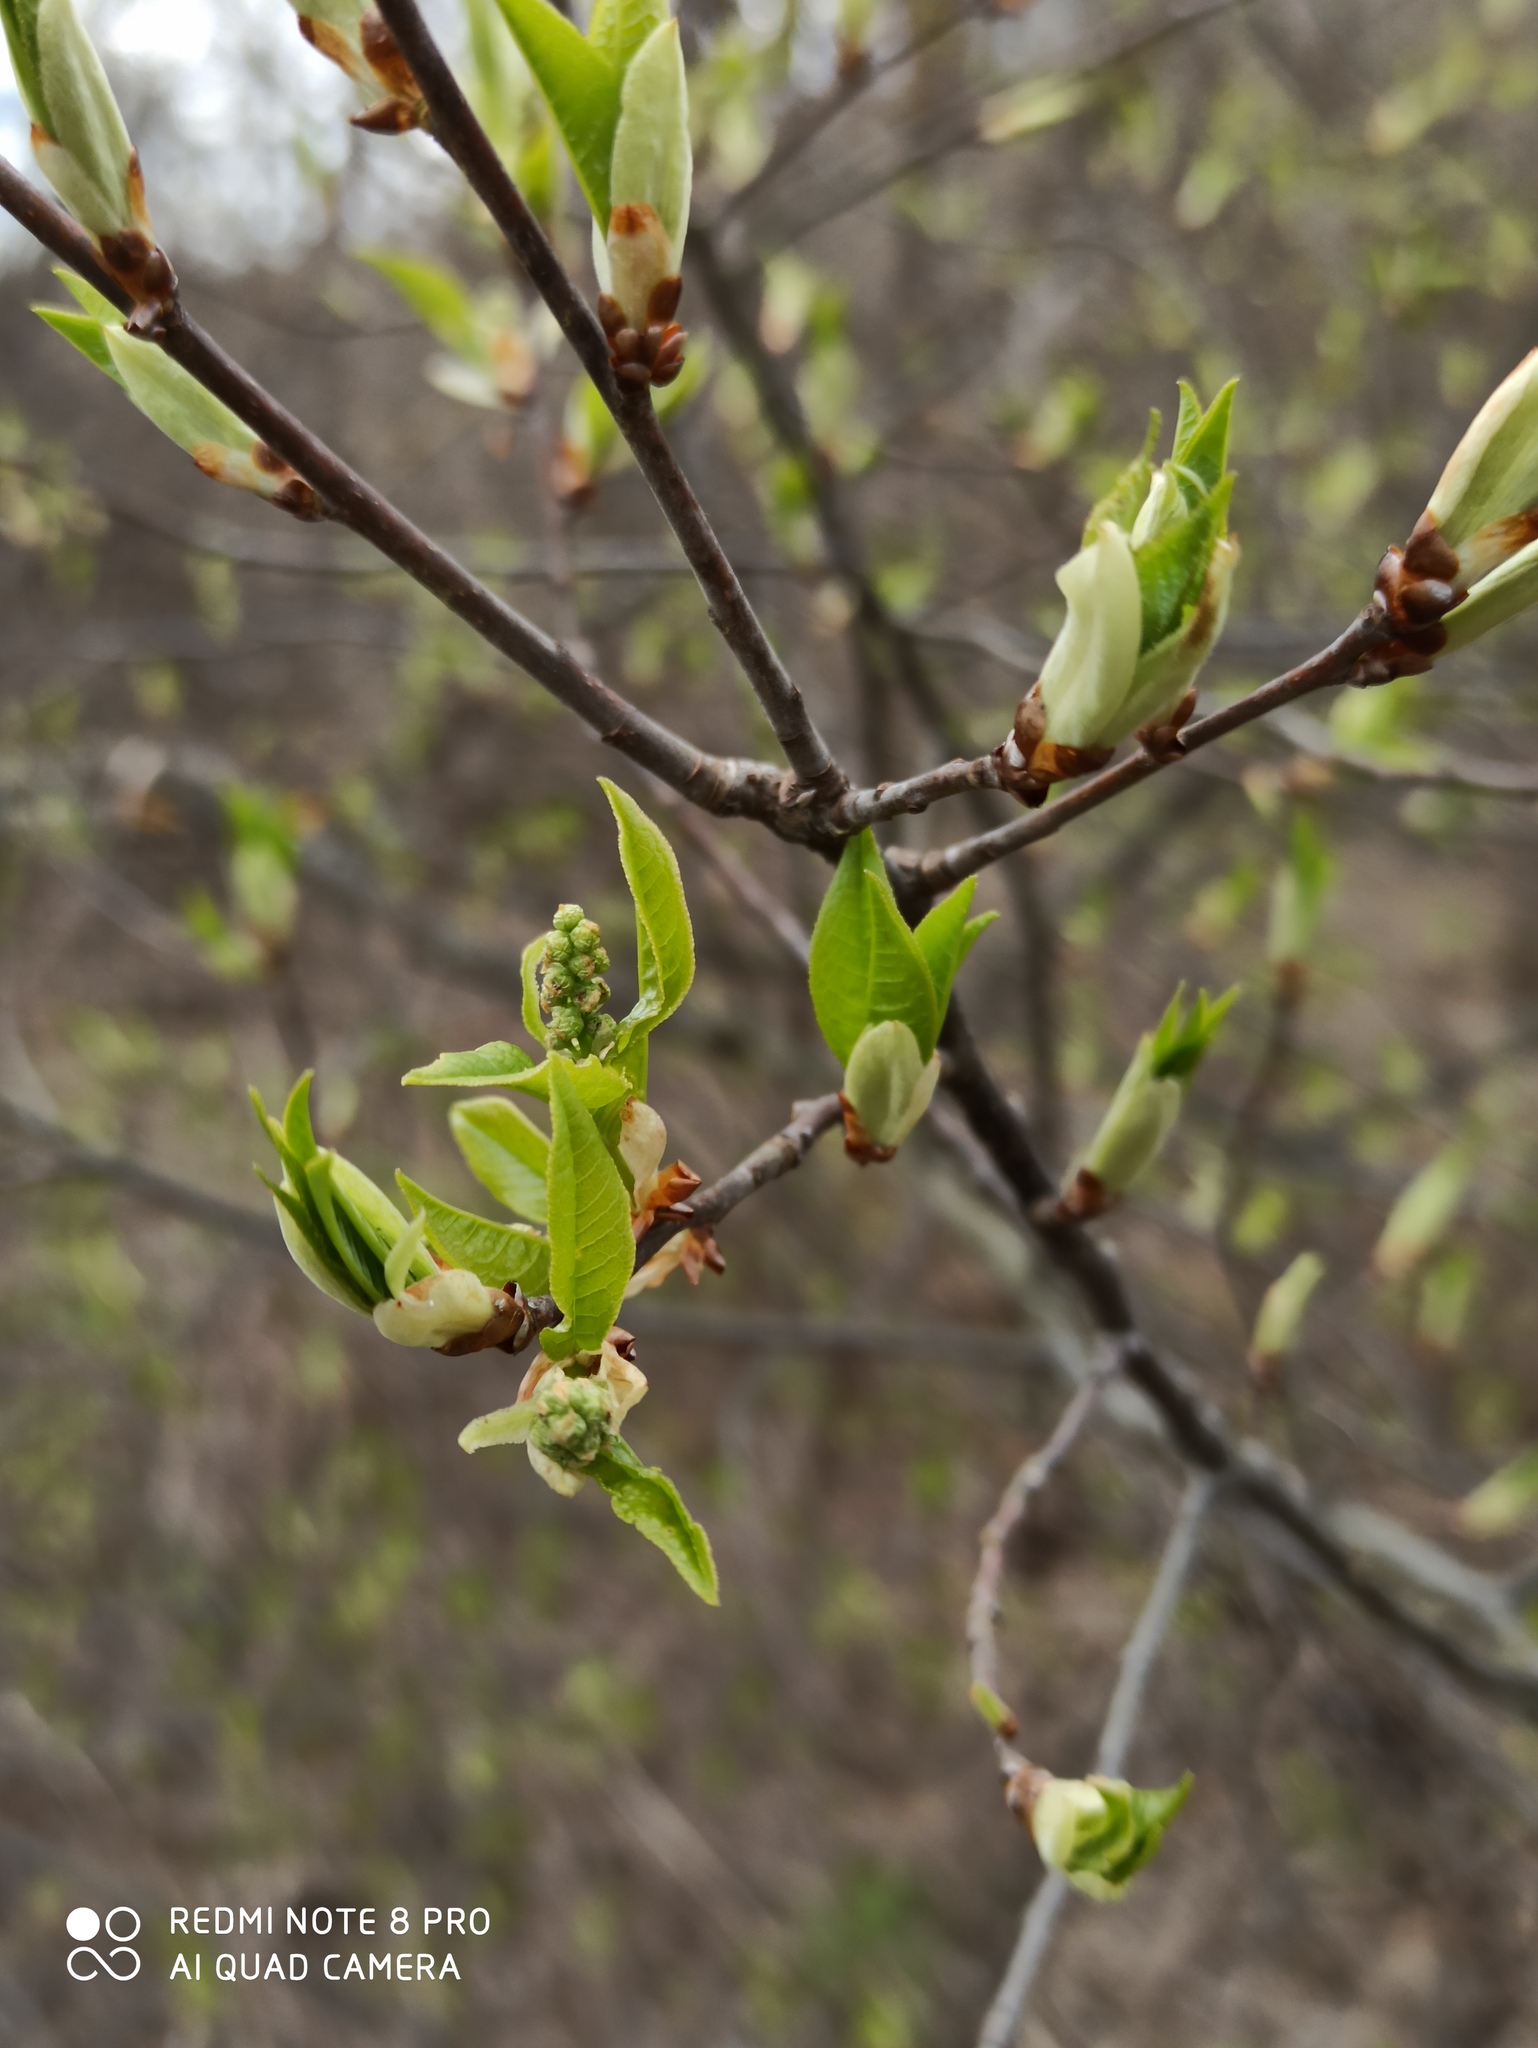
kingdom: Plantae
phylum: Tracheophyta
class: Magnoliopsida
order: Rosales
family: Rosaceae
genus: Prunus
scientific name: Prunus padus
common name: Bird cherry
